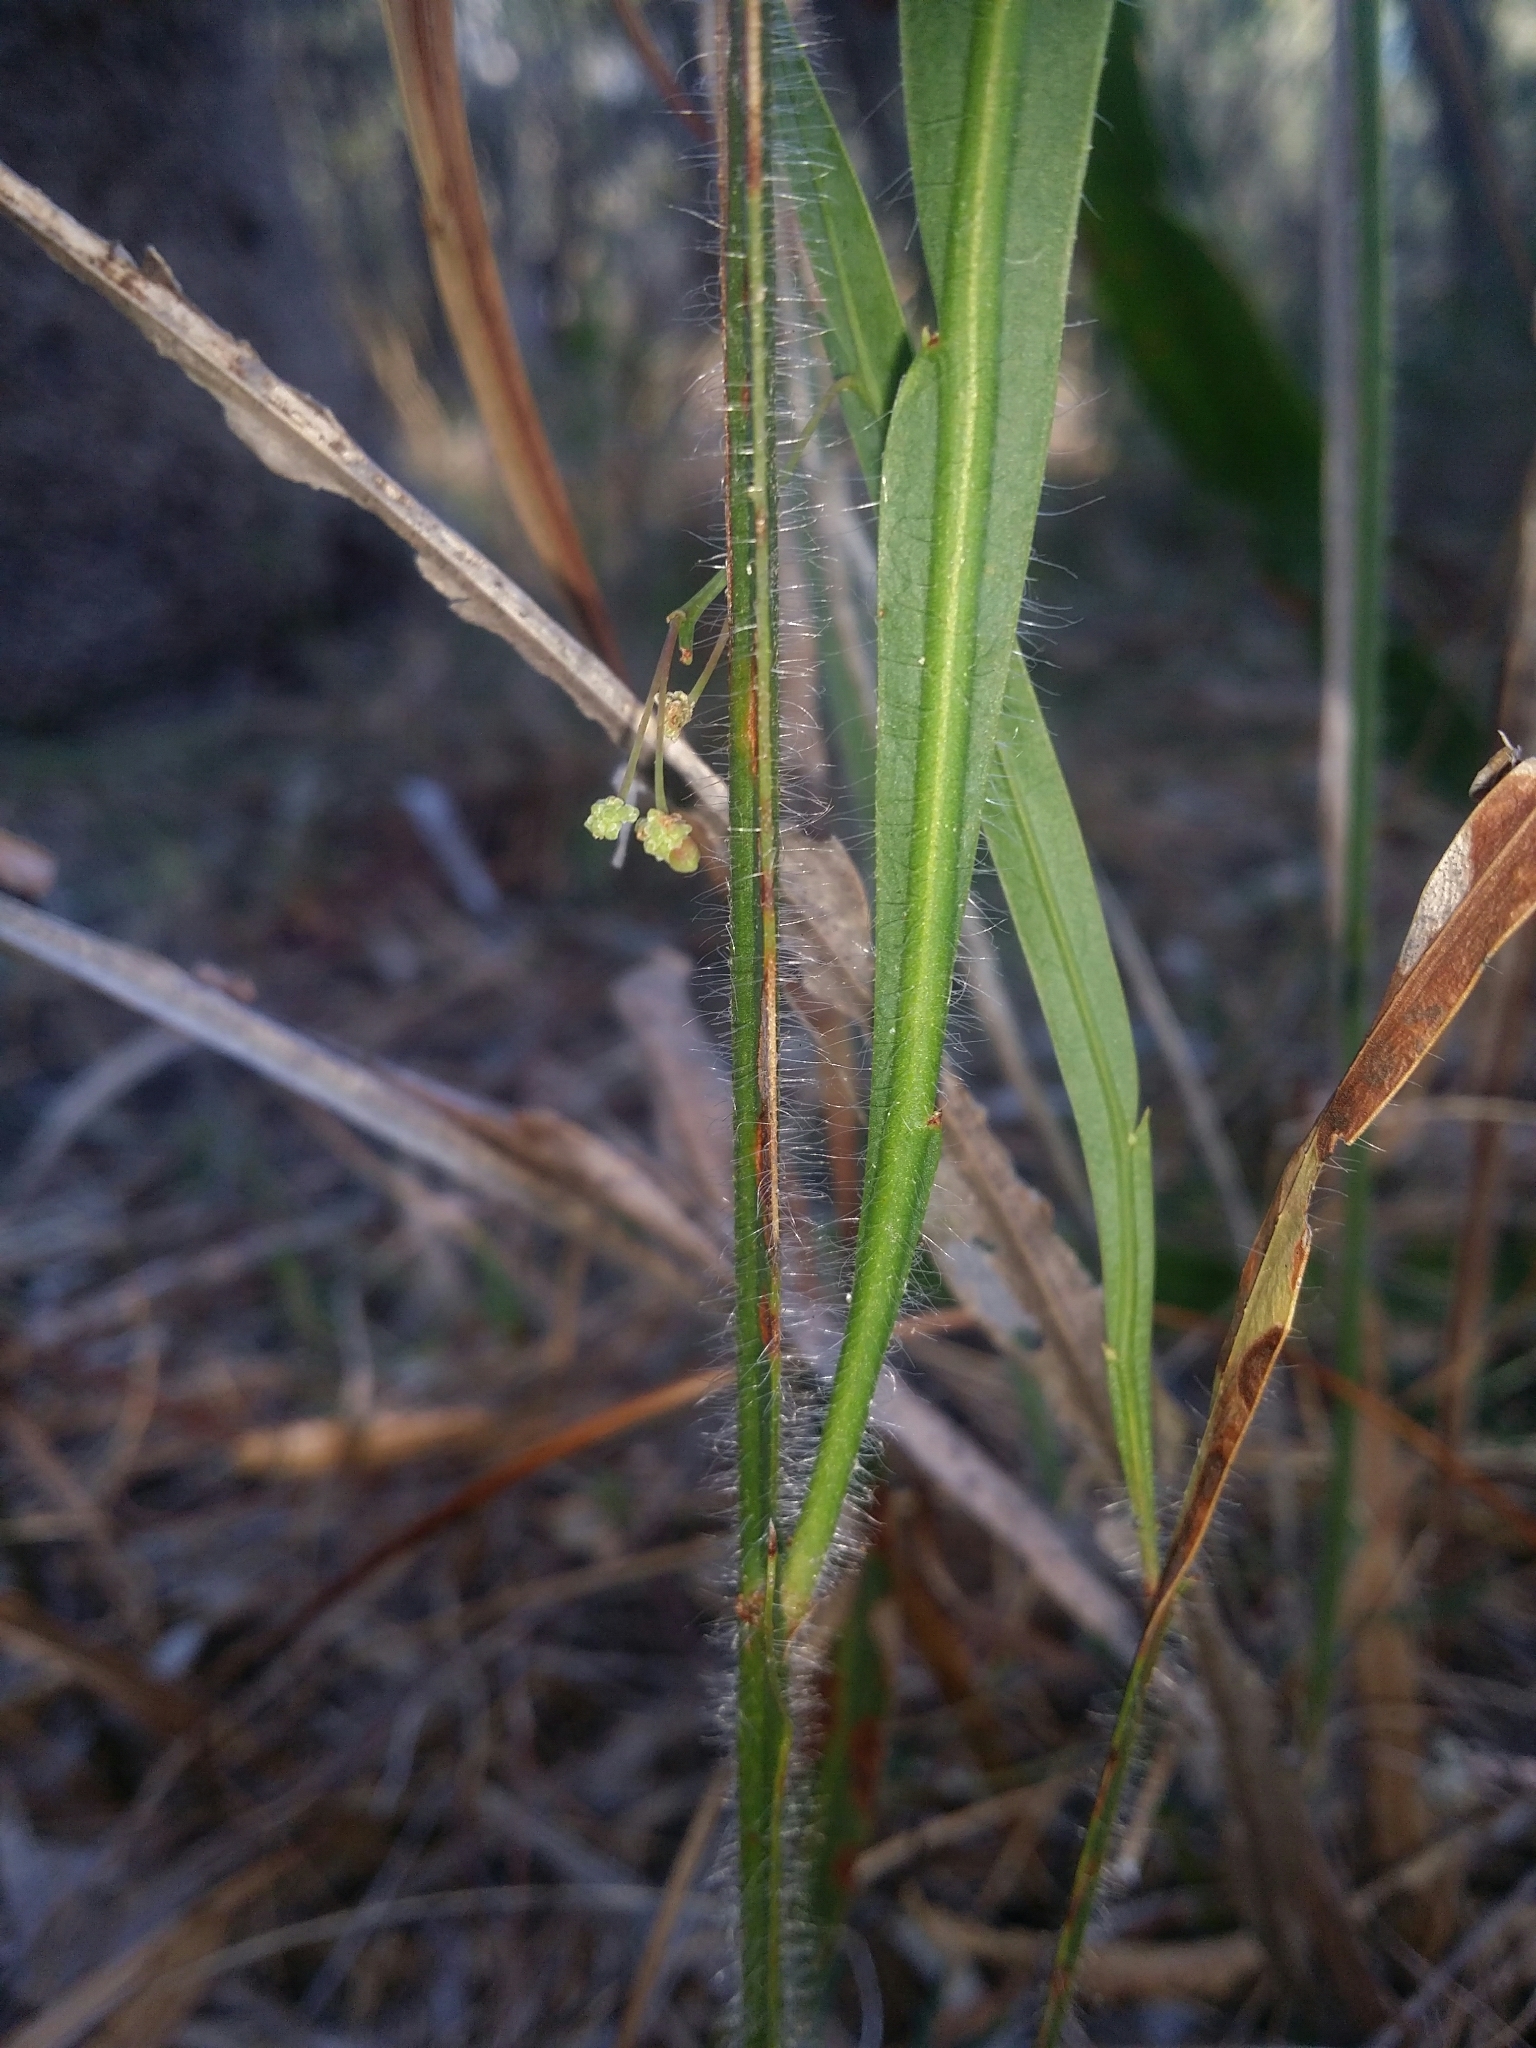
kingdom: Plantae
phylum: Tracheophyta
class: Magnoliopsida
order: Fabales
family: Fabaceae
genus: Acacia
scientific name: Acacia willdenowiana
